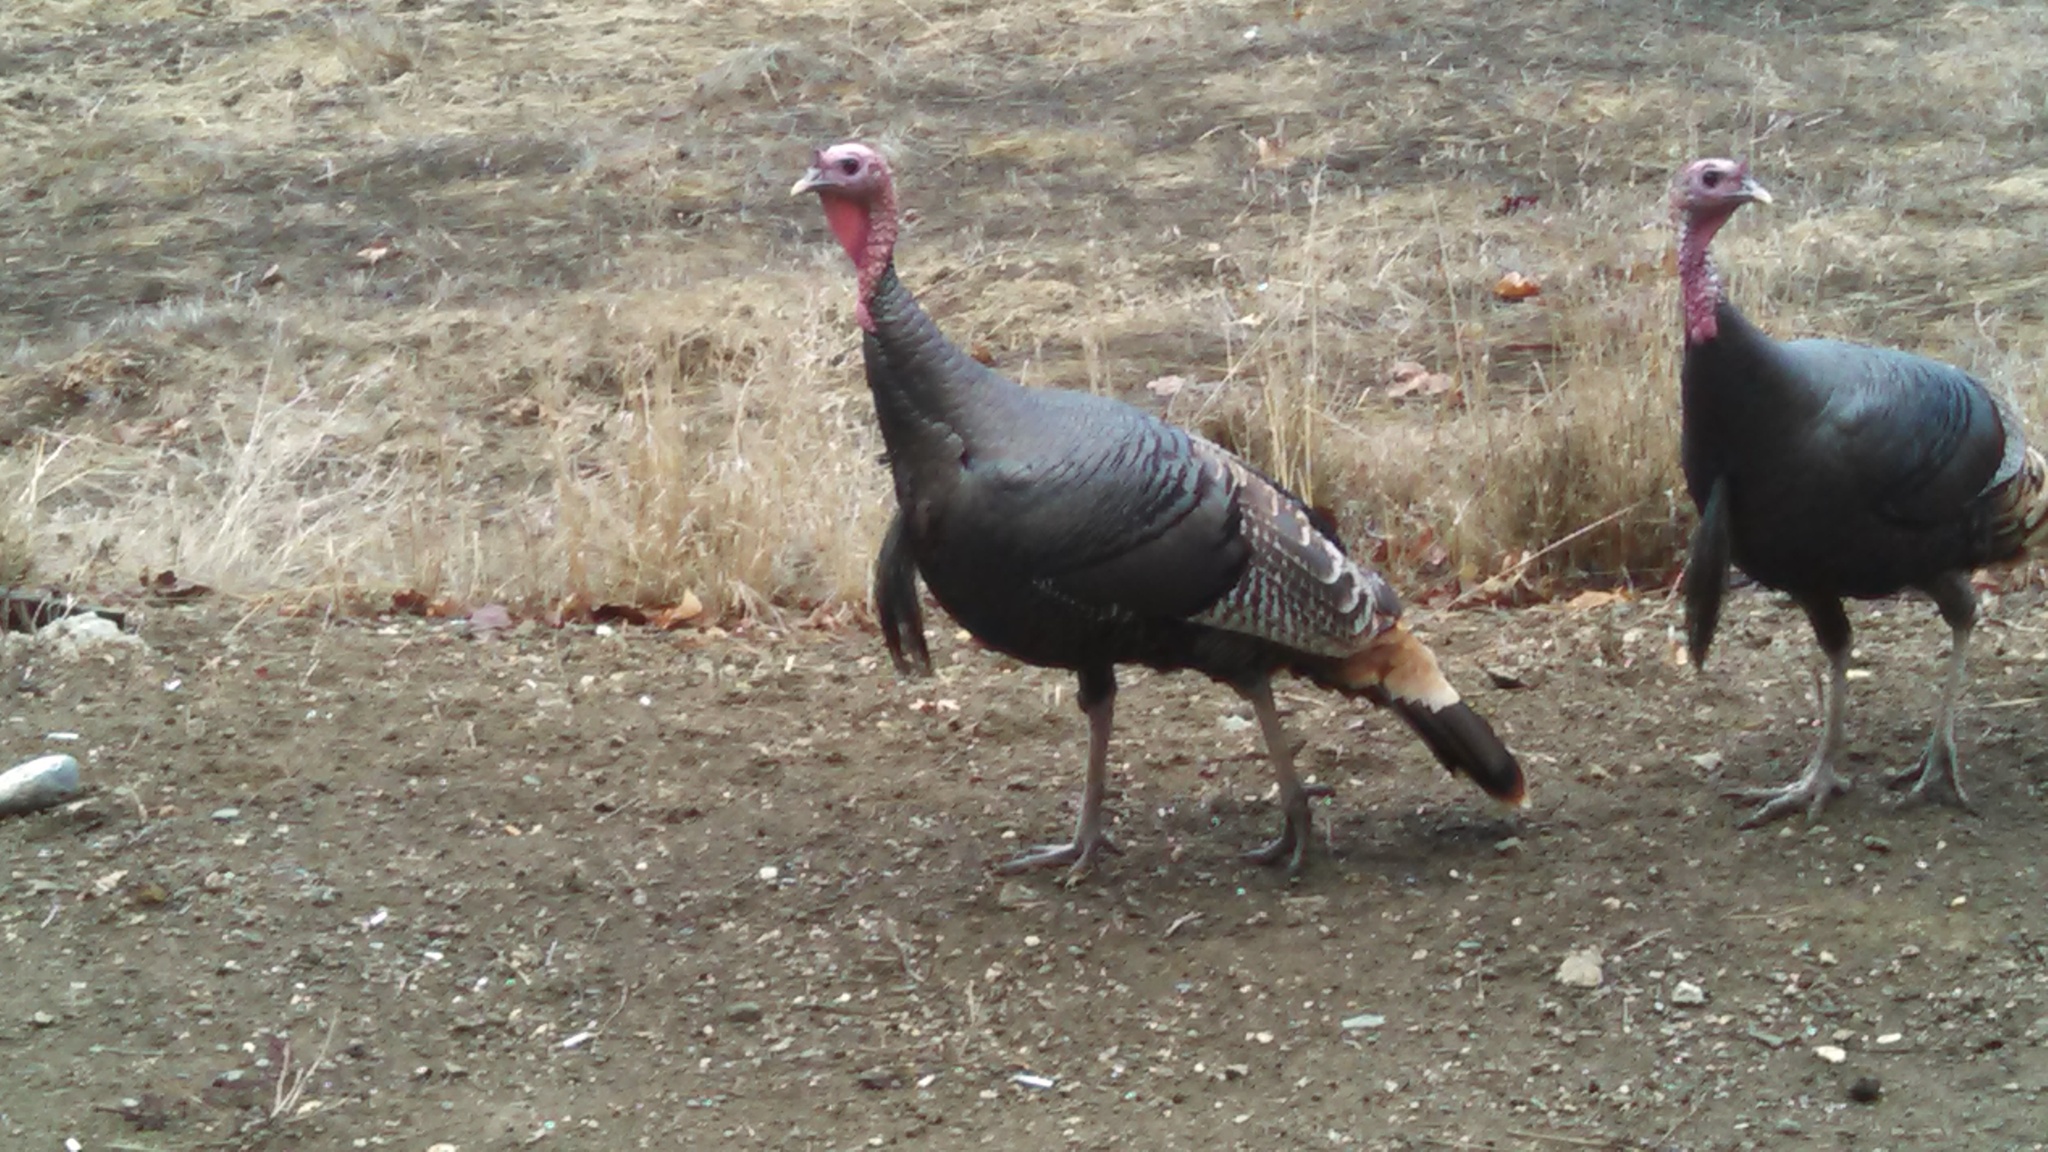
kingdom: Animalia
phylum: Chordata
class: Aves
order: Galliformes
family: Phasianidae
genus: Meleagris
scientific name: Meleagris gallopavo
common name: Wild turkey
